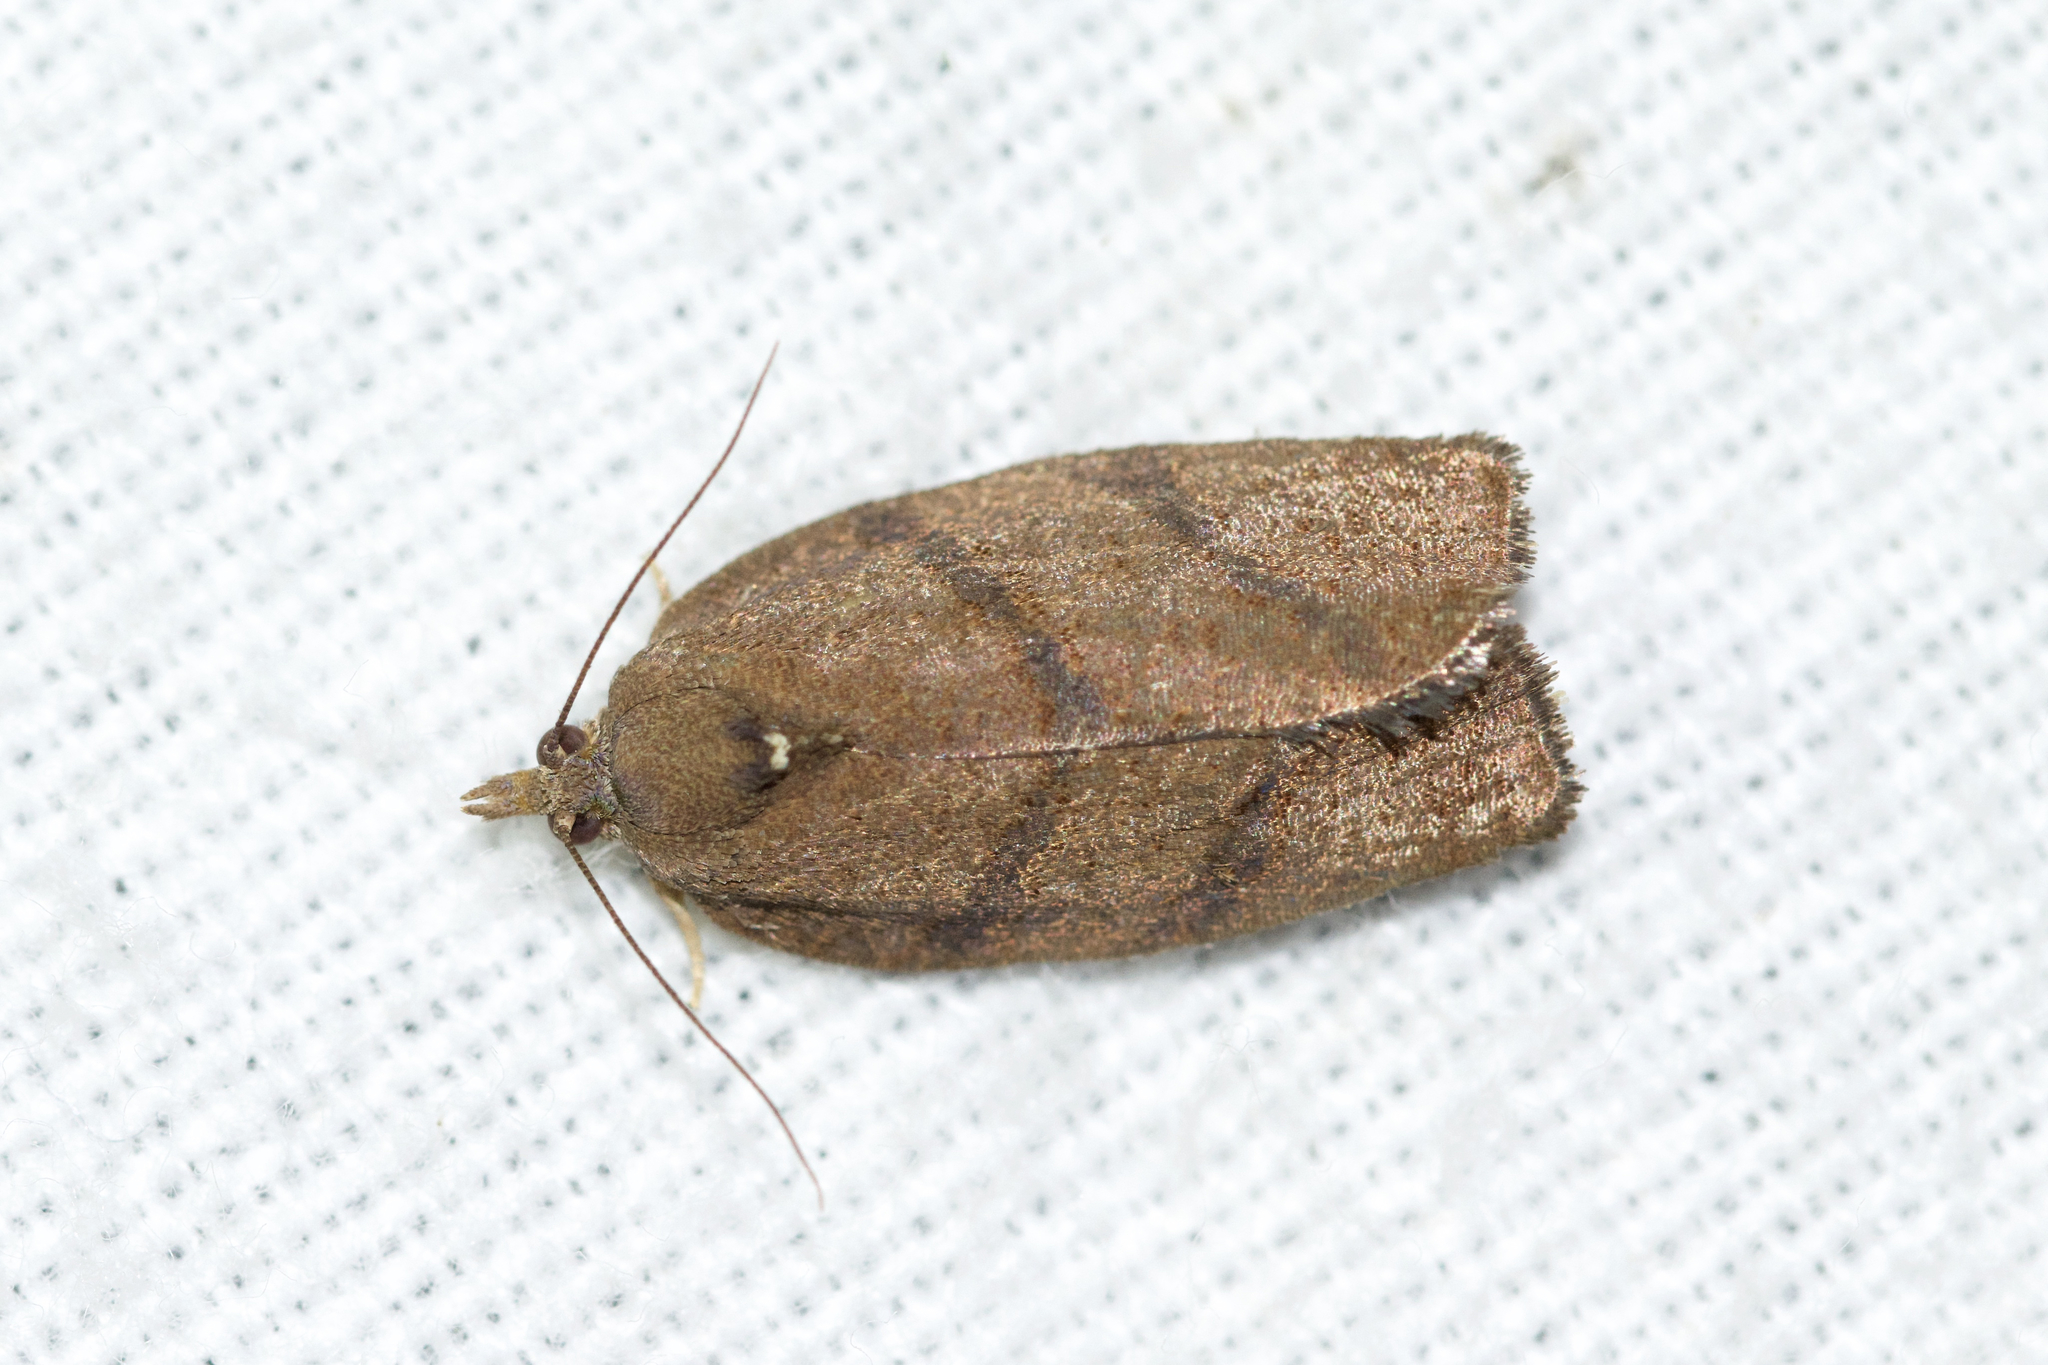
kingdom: Animalia
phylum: Arthropoda
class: Insecta
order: Lepidoptera
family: Tortricidae
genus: Argyrotaenia
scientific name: Argyrotaenia juglandana
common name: Hickory leafroller moth
